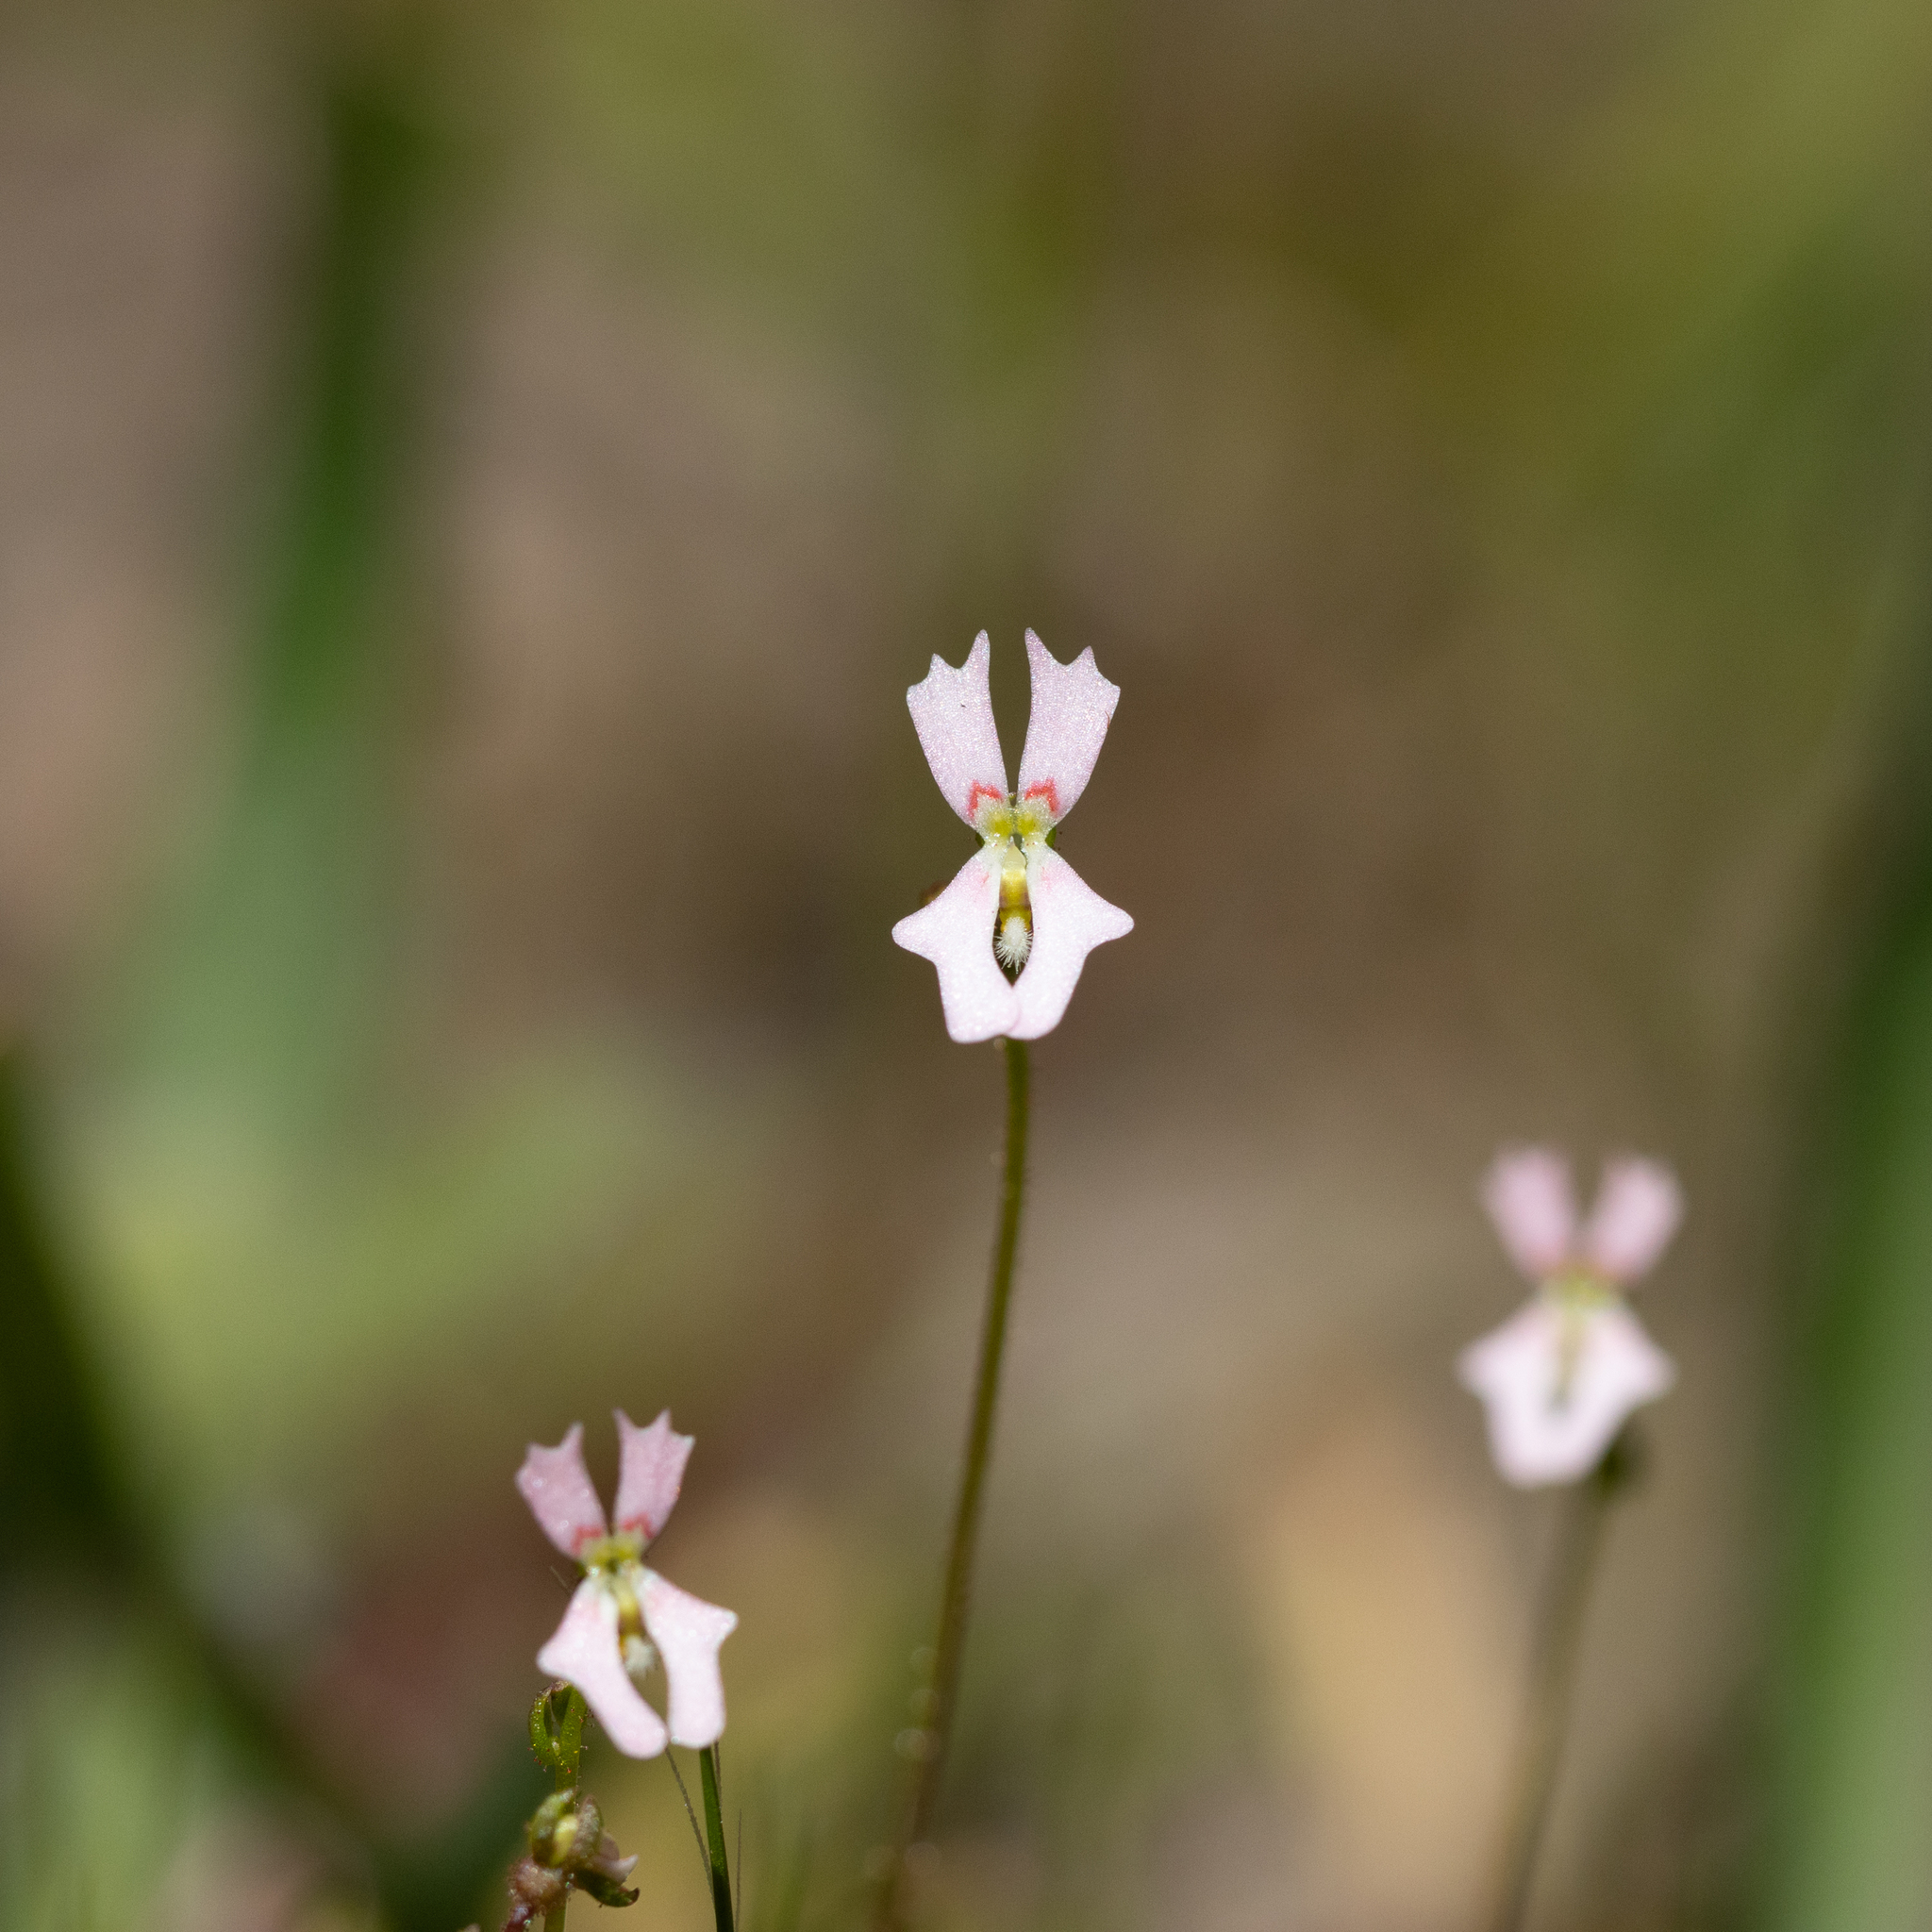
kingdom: Plantae
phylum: Tracheophyta
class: Magnoliopsida
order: Asterales
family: Stylidiaceae
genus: Stylidium
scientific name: Stylidium calcaratum
